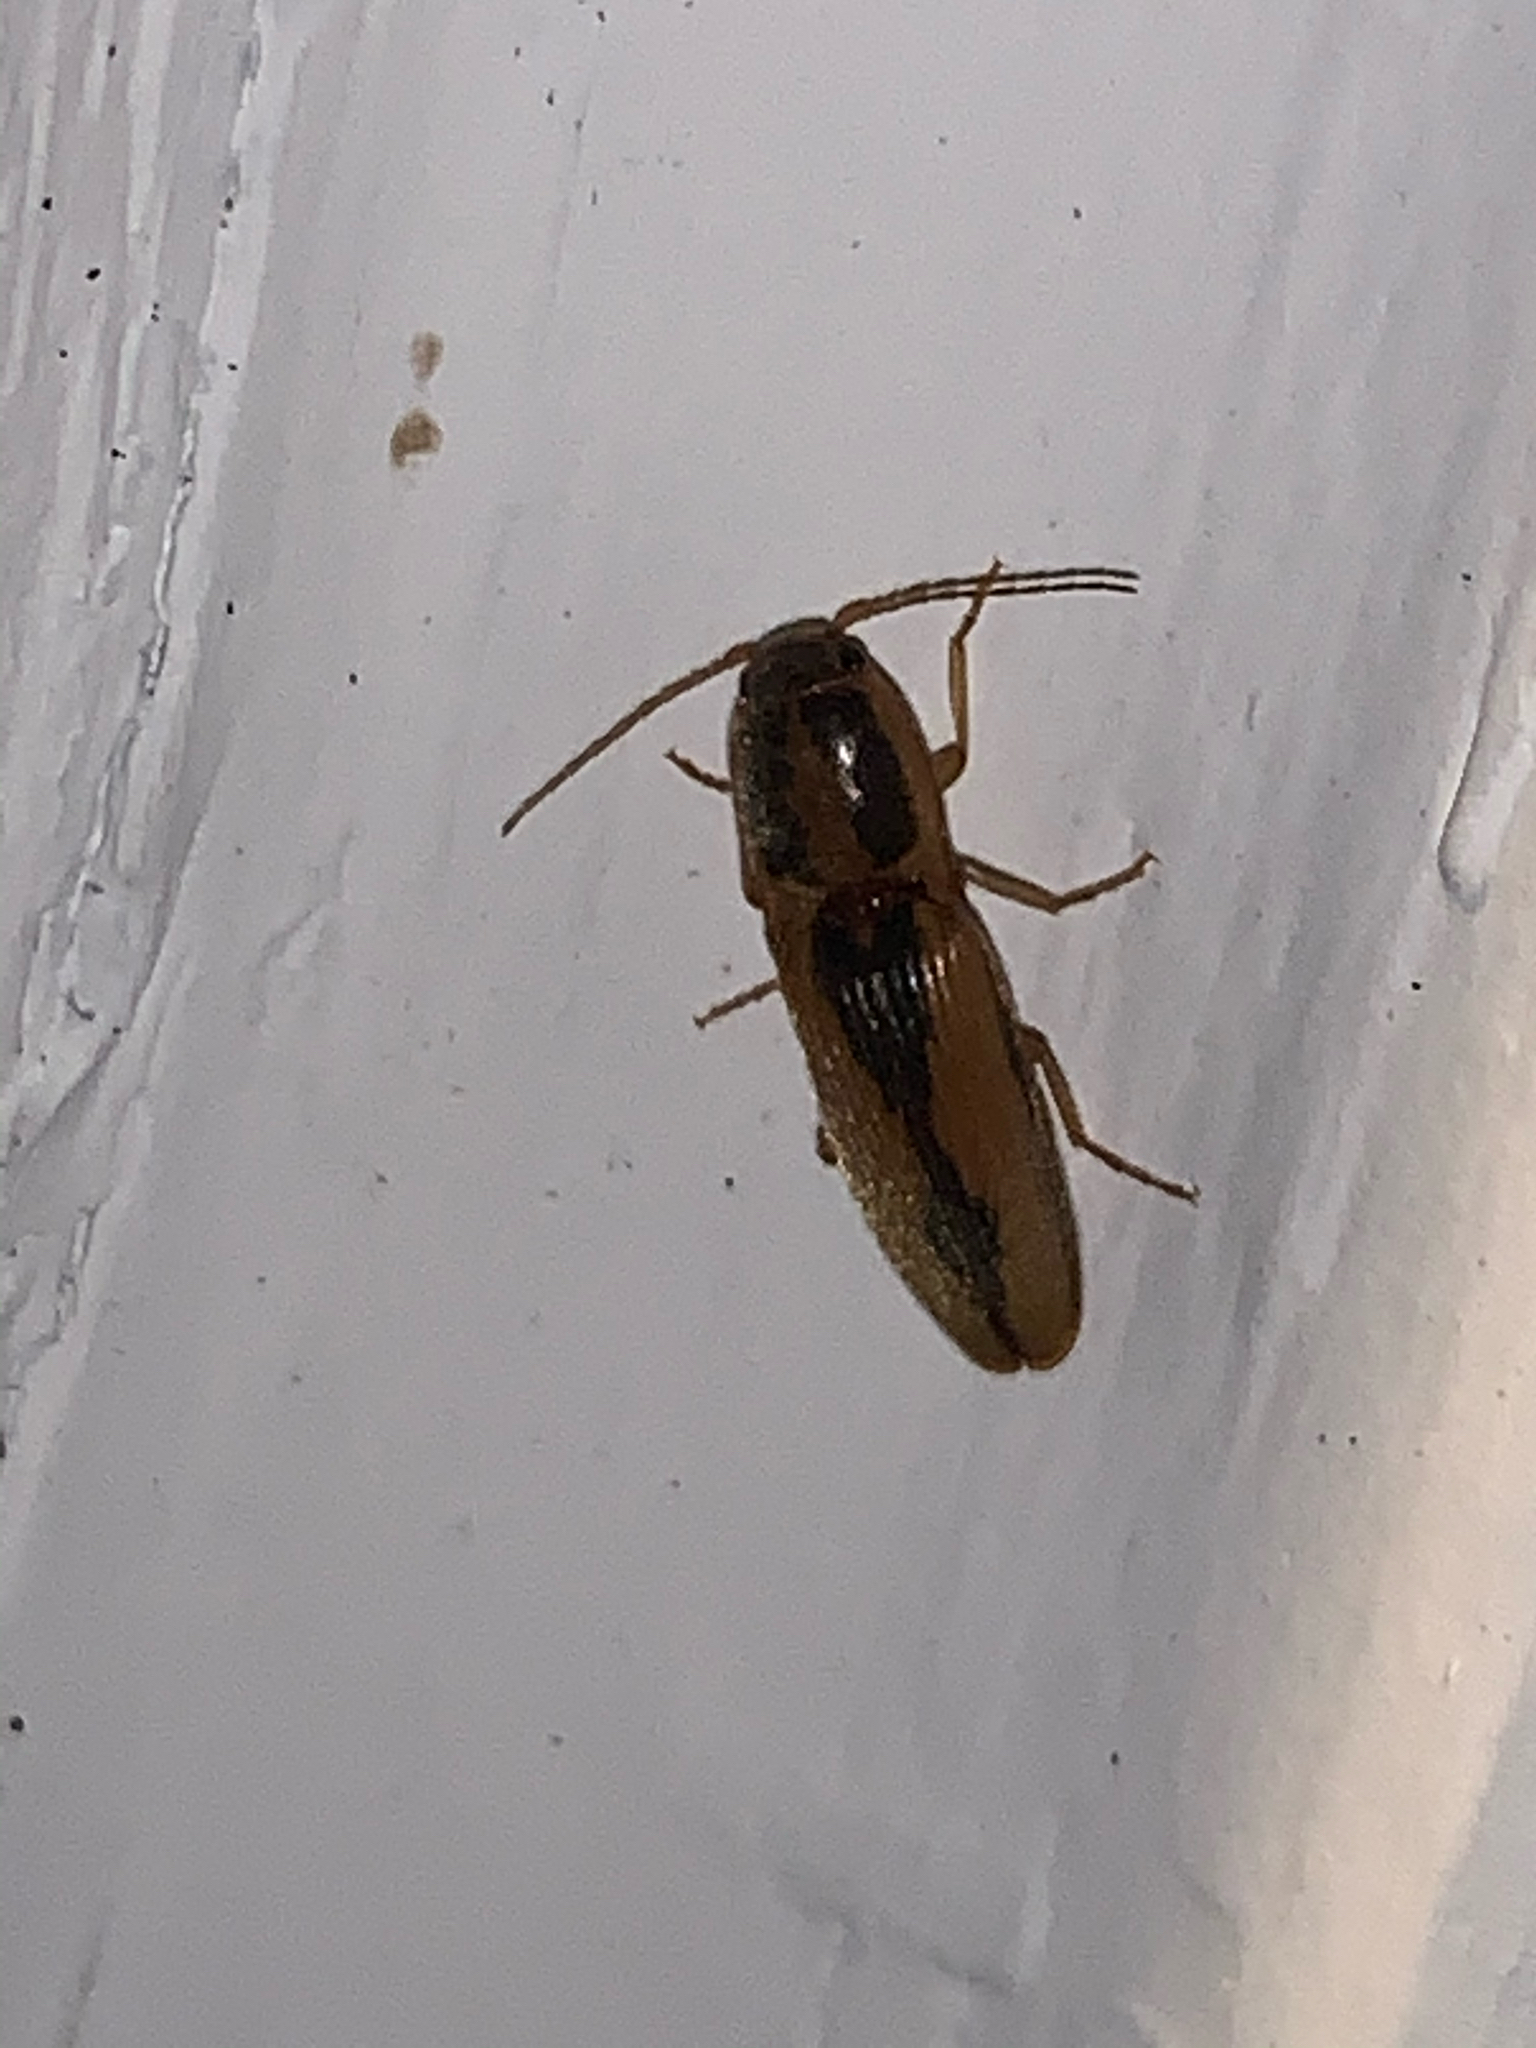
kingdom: Animalia
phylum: Arthropoda
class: Insecta
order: Coleoptera
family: Elateridae
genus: Monocrepidius
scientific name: Monocrepidius
